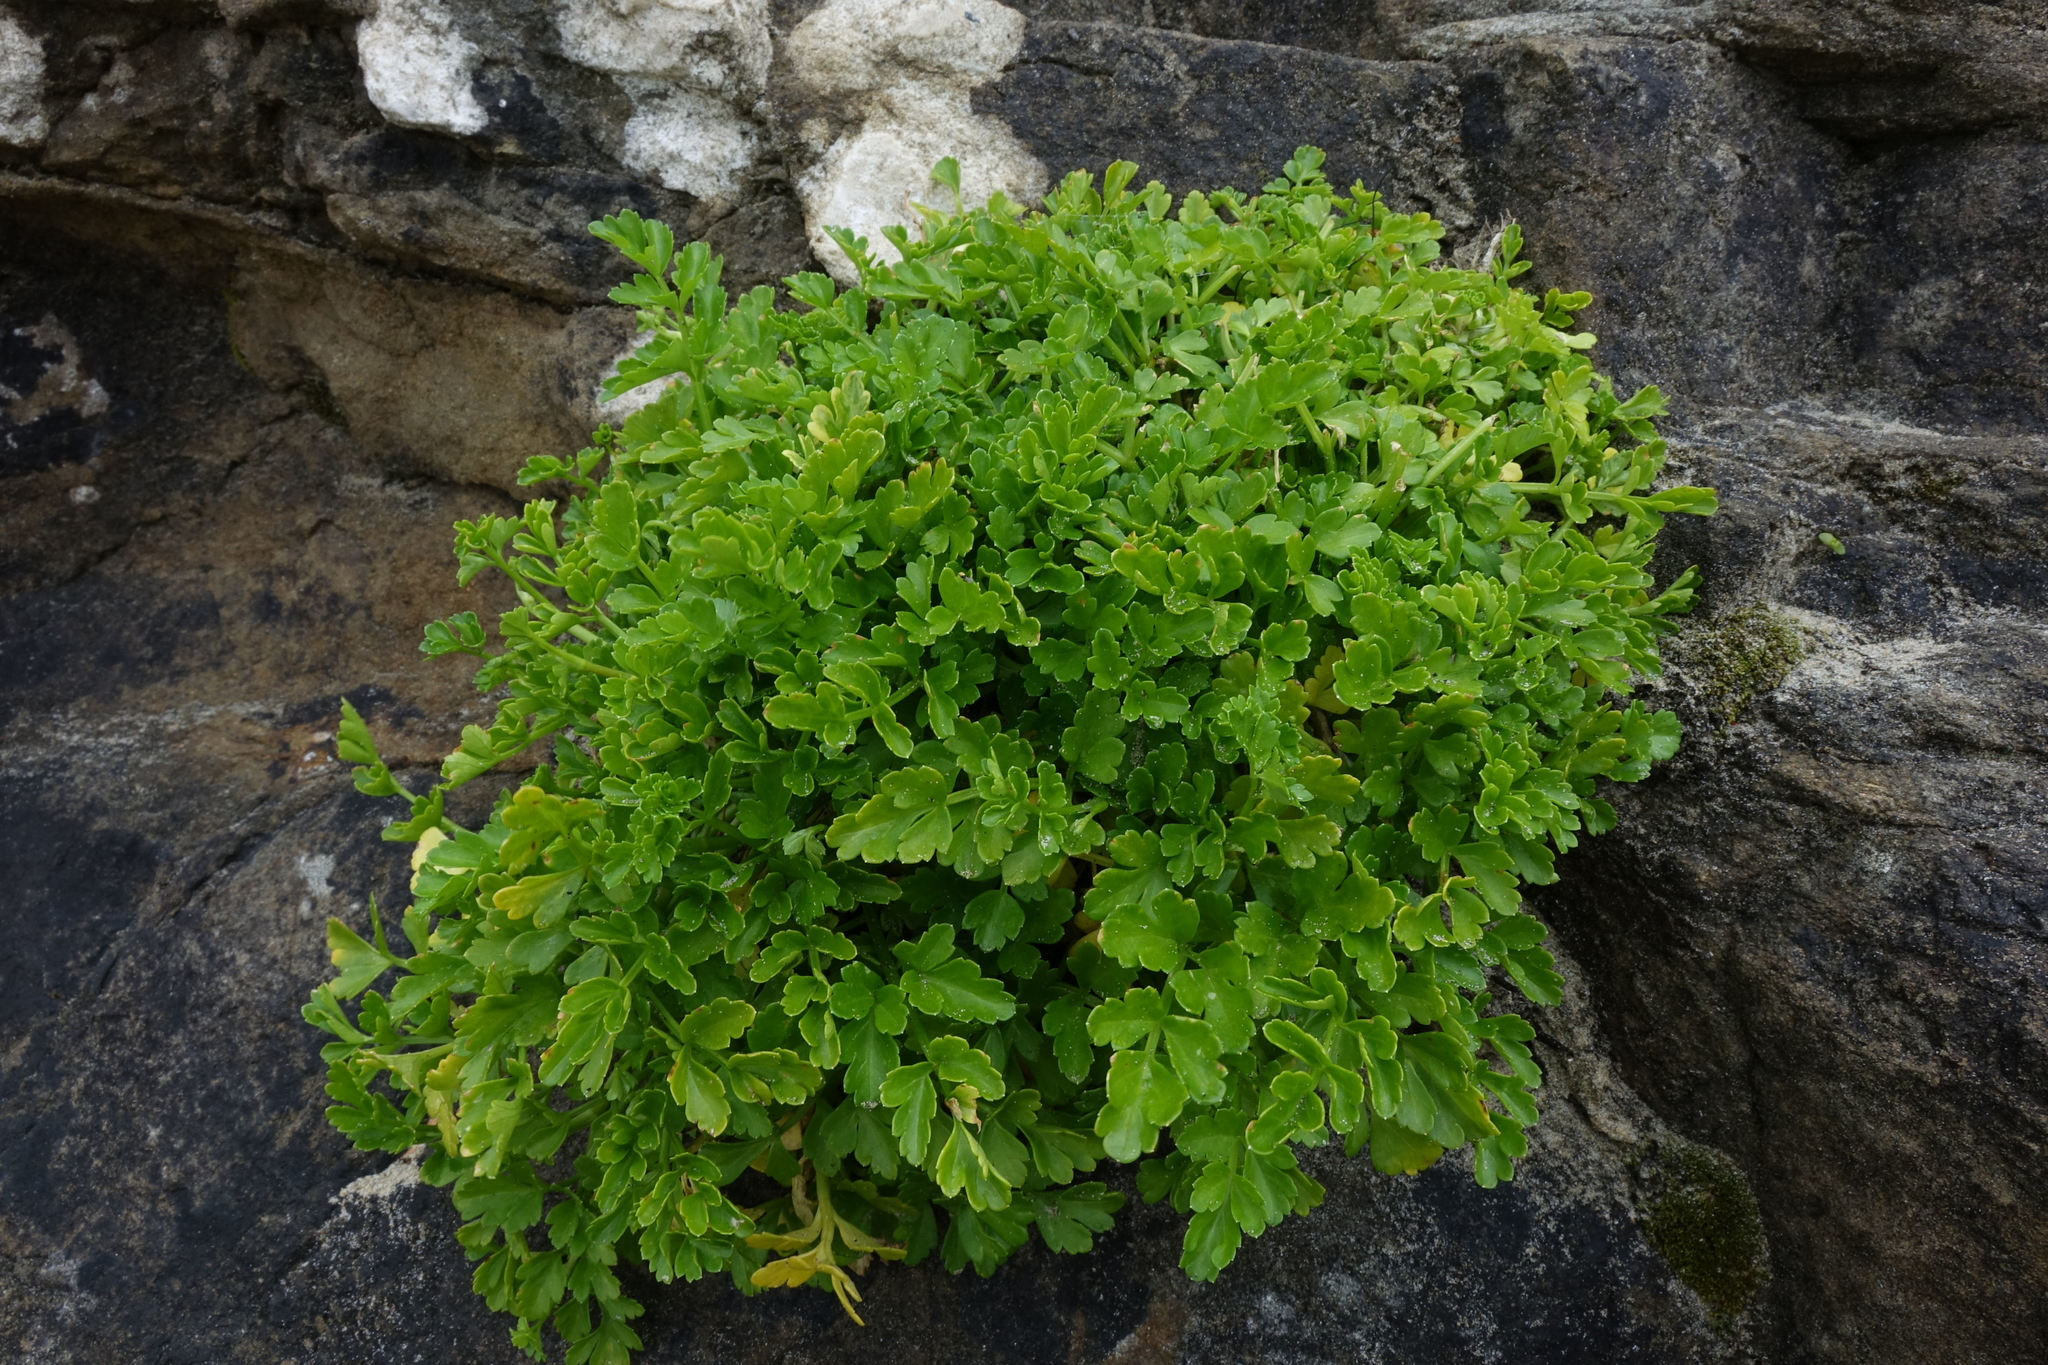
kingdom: Plantae
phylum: Tracheophyta
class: Magnoliopsida
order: Apiales
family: Apiaceae
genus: Apium
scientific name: Apium prostratum
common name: Prostrate marshwort
